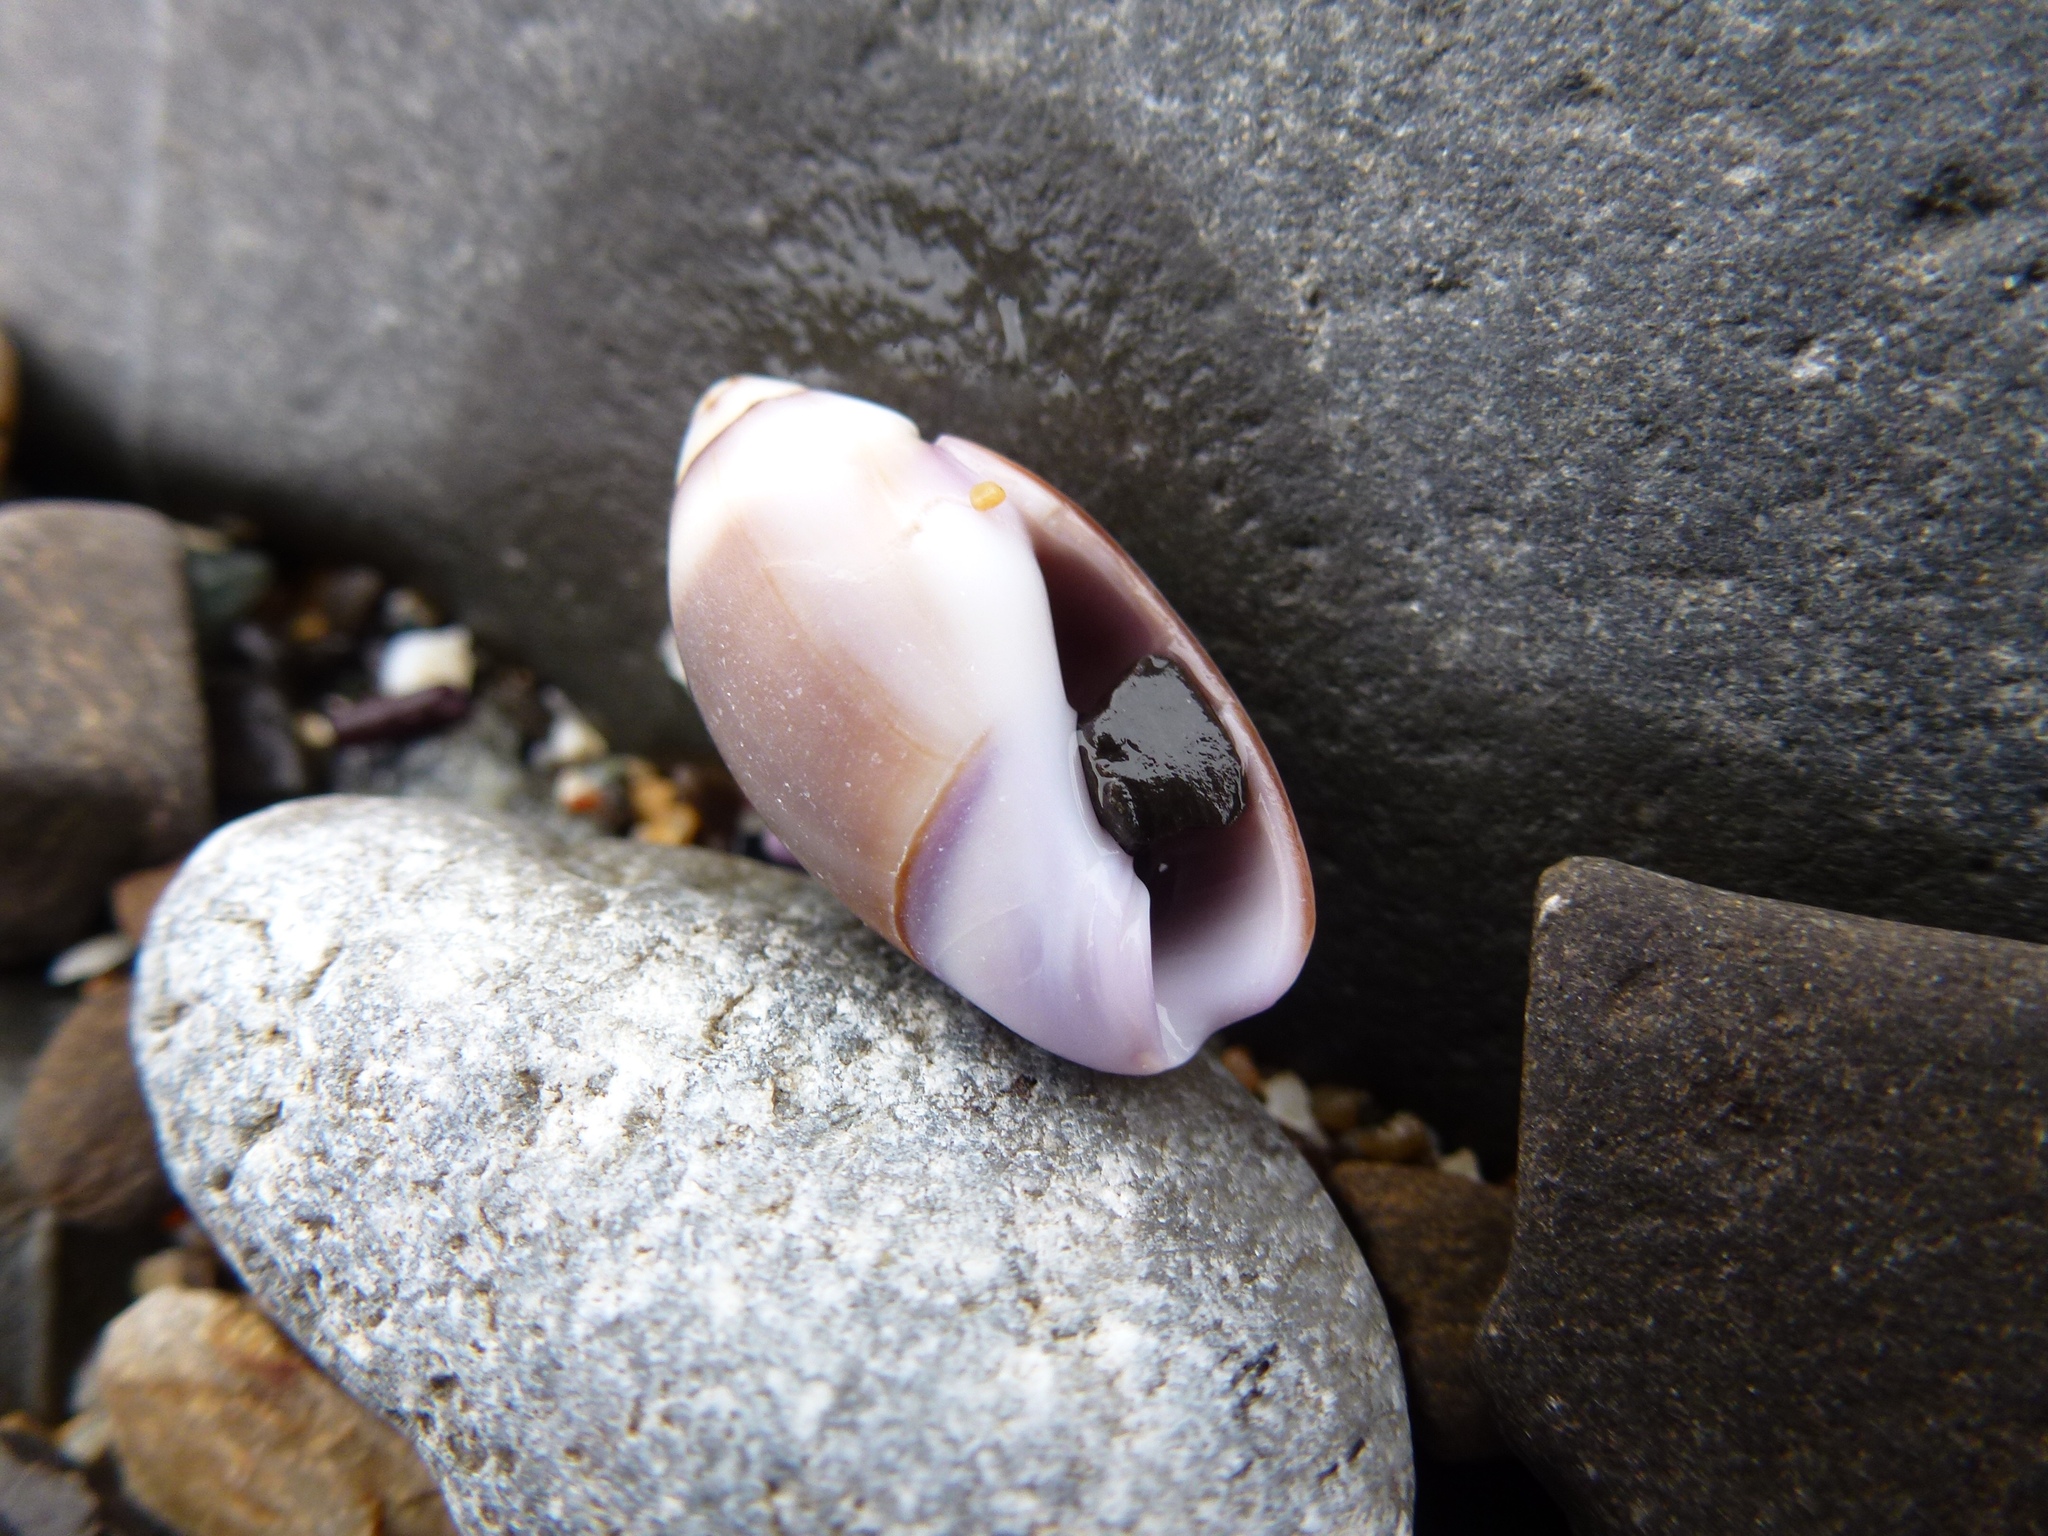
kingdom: Animalia
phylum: Mollusca
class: Gastropoda
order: Neogastropoda
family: Olividae
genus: Callianax
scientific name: Callianax biplicata
